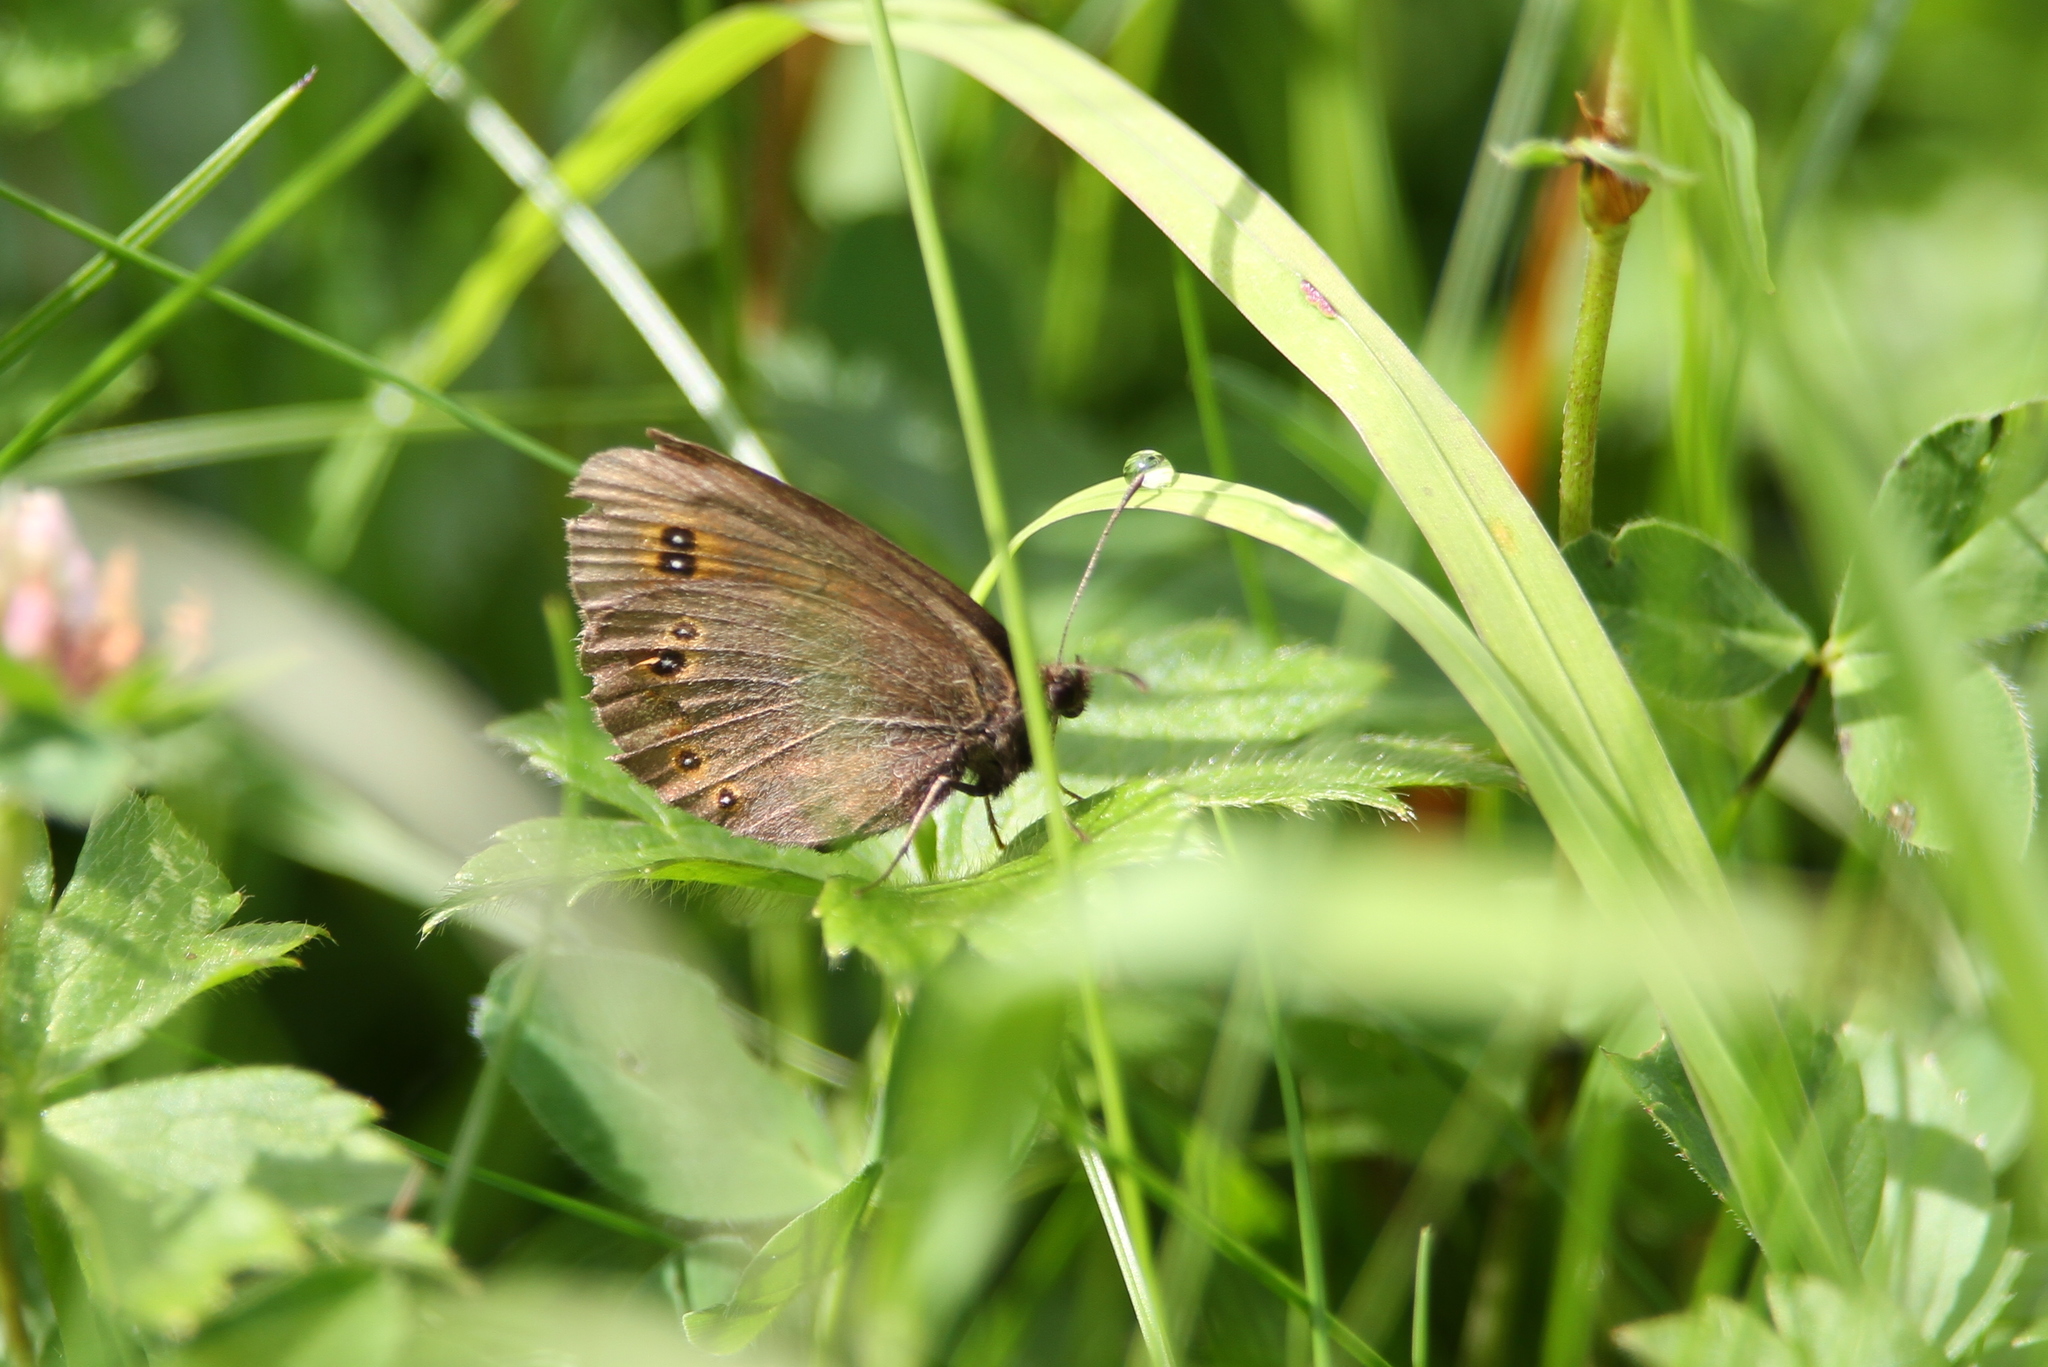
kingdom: Animalia
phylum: Arthropoda
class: Insecta
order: Lepidoptera
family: Nymphalidae
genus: Erebia
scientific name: Erebia oeme
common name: Bright-eyed ringlet
